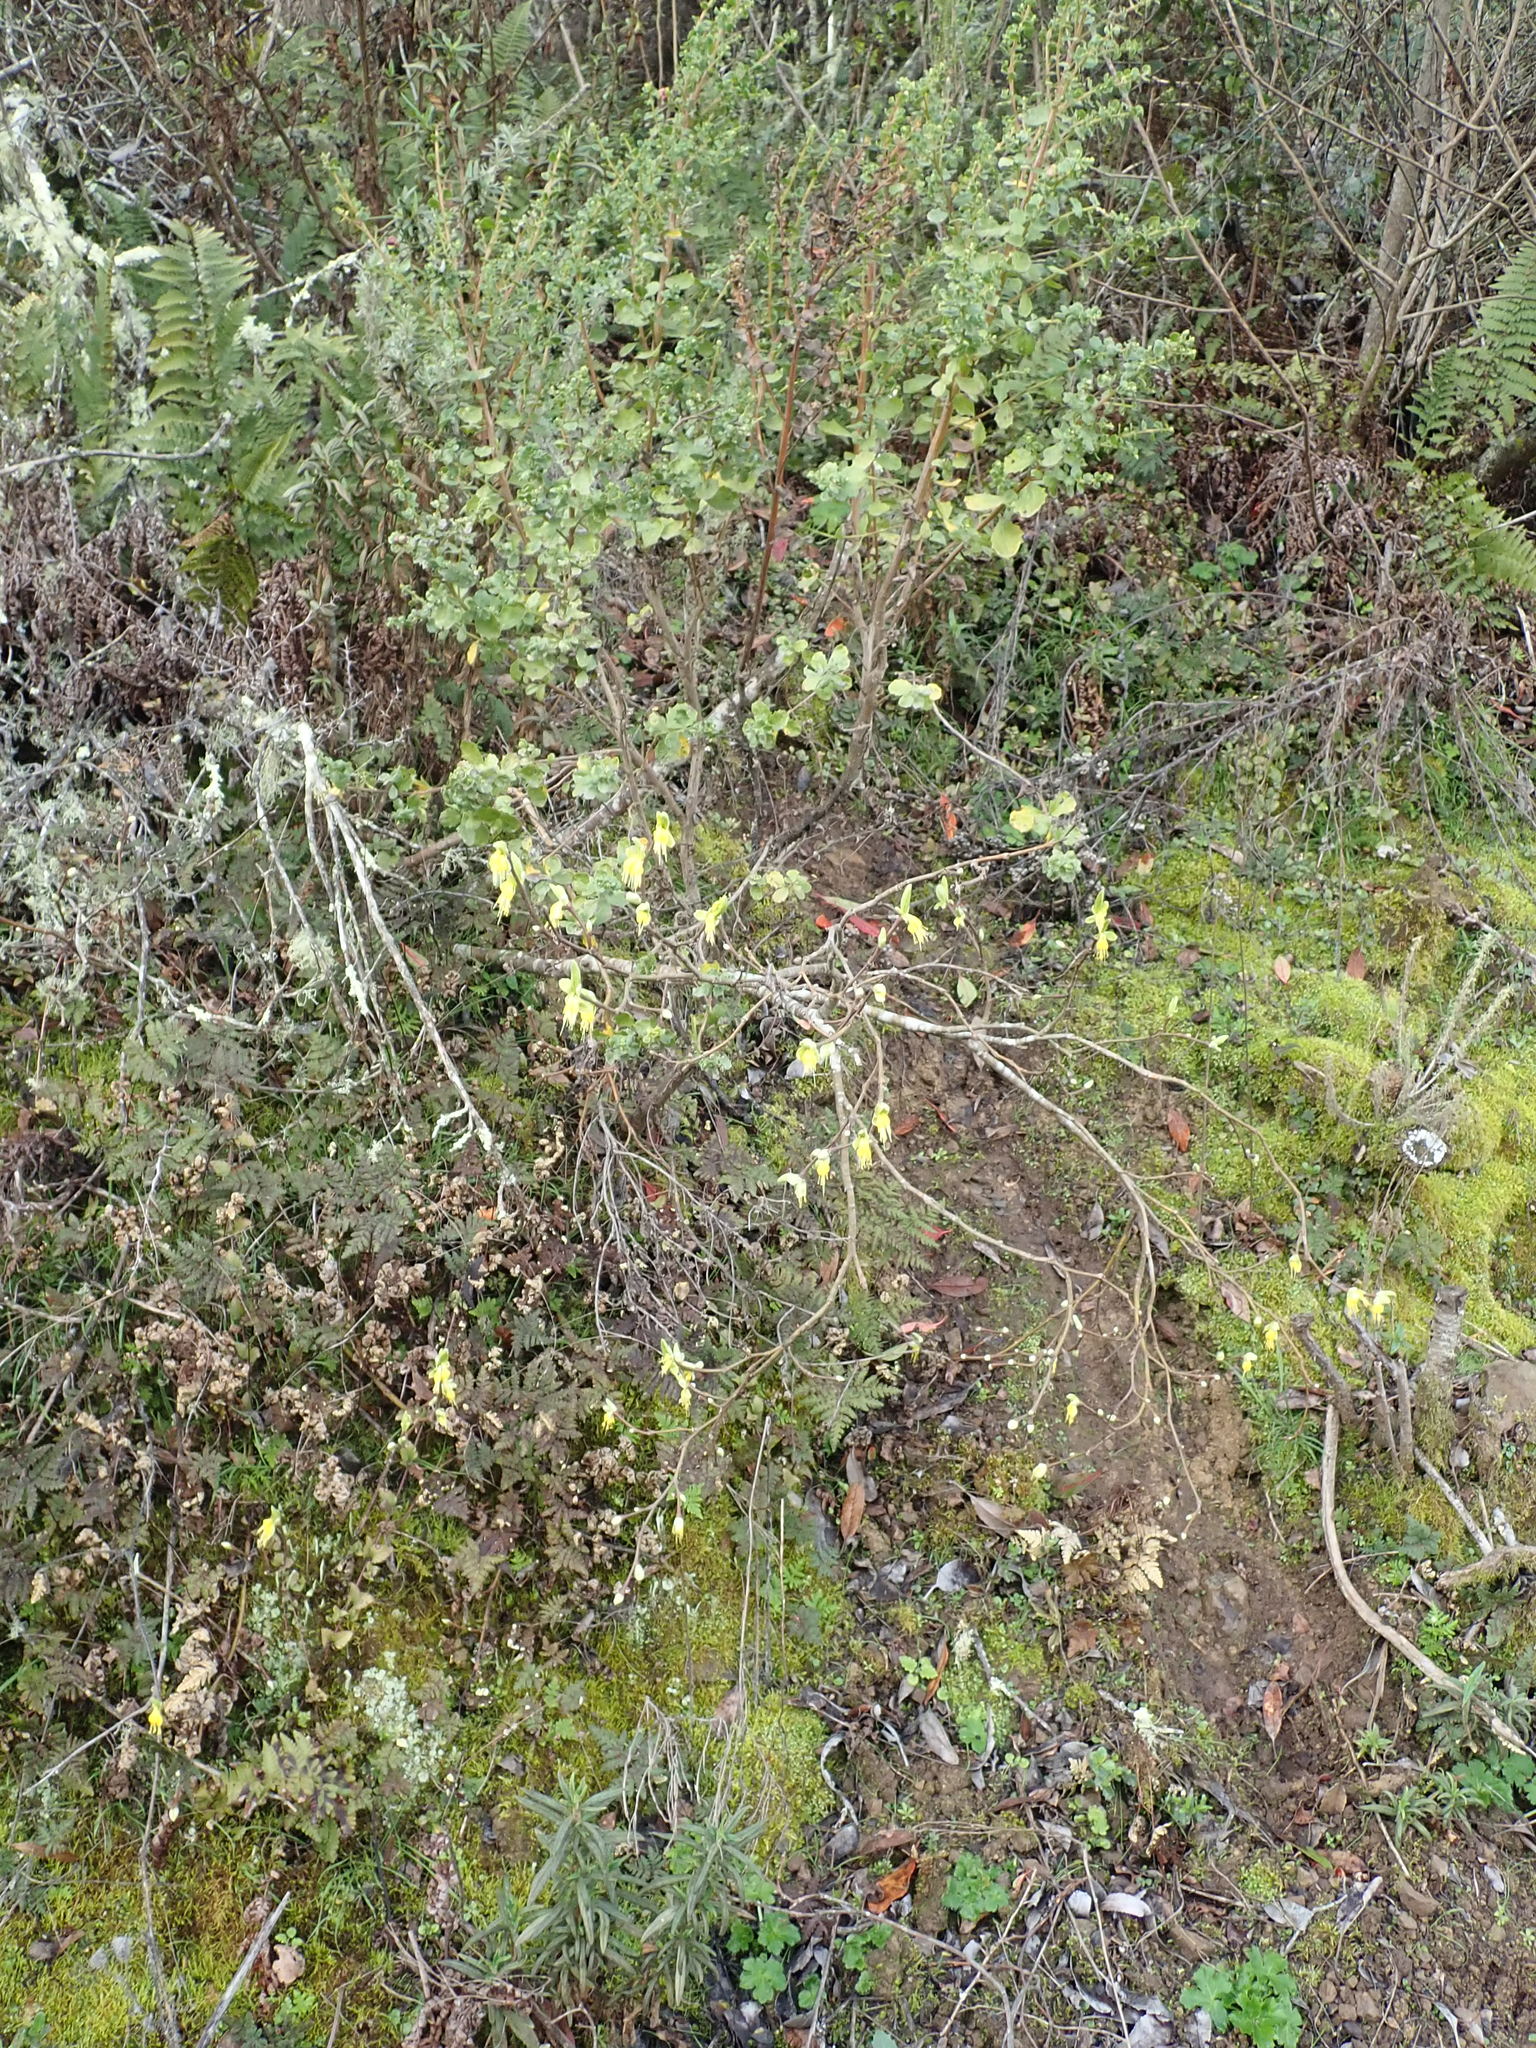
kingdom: Plantae
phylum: Tracheophyta
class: Magnoliopsida
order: Malvales
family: Thymelaeaceae
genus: Dirca
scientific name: Dirca occidentalis
